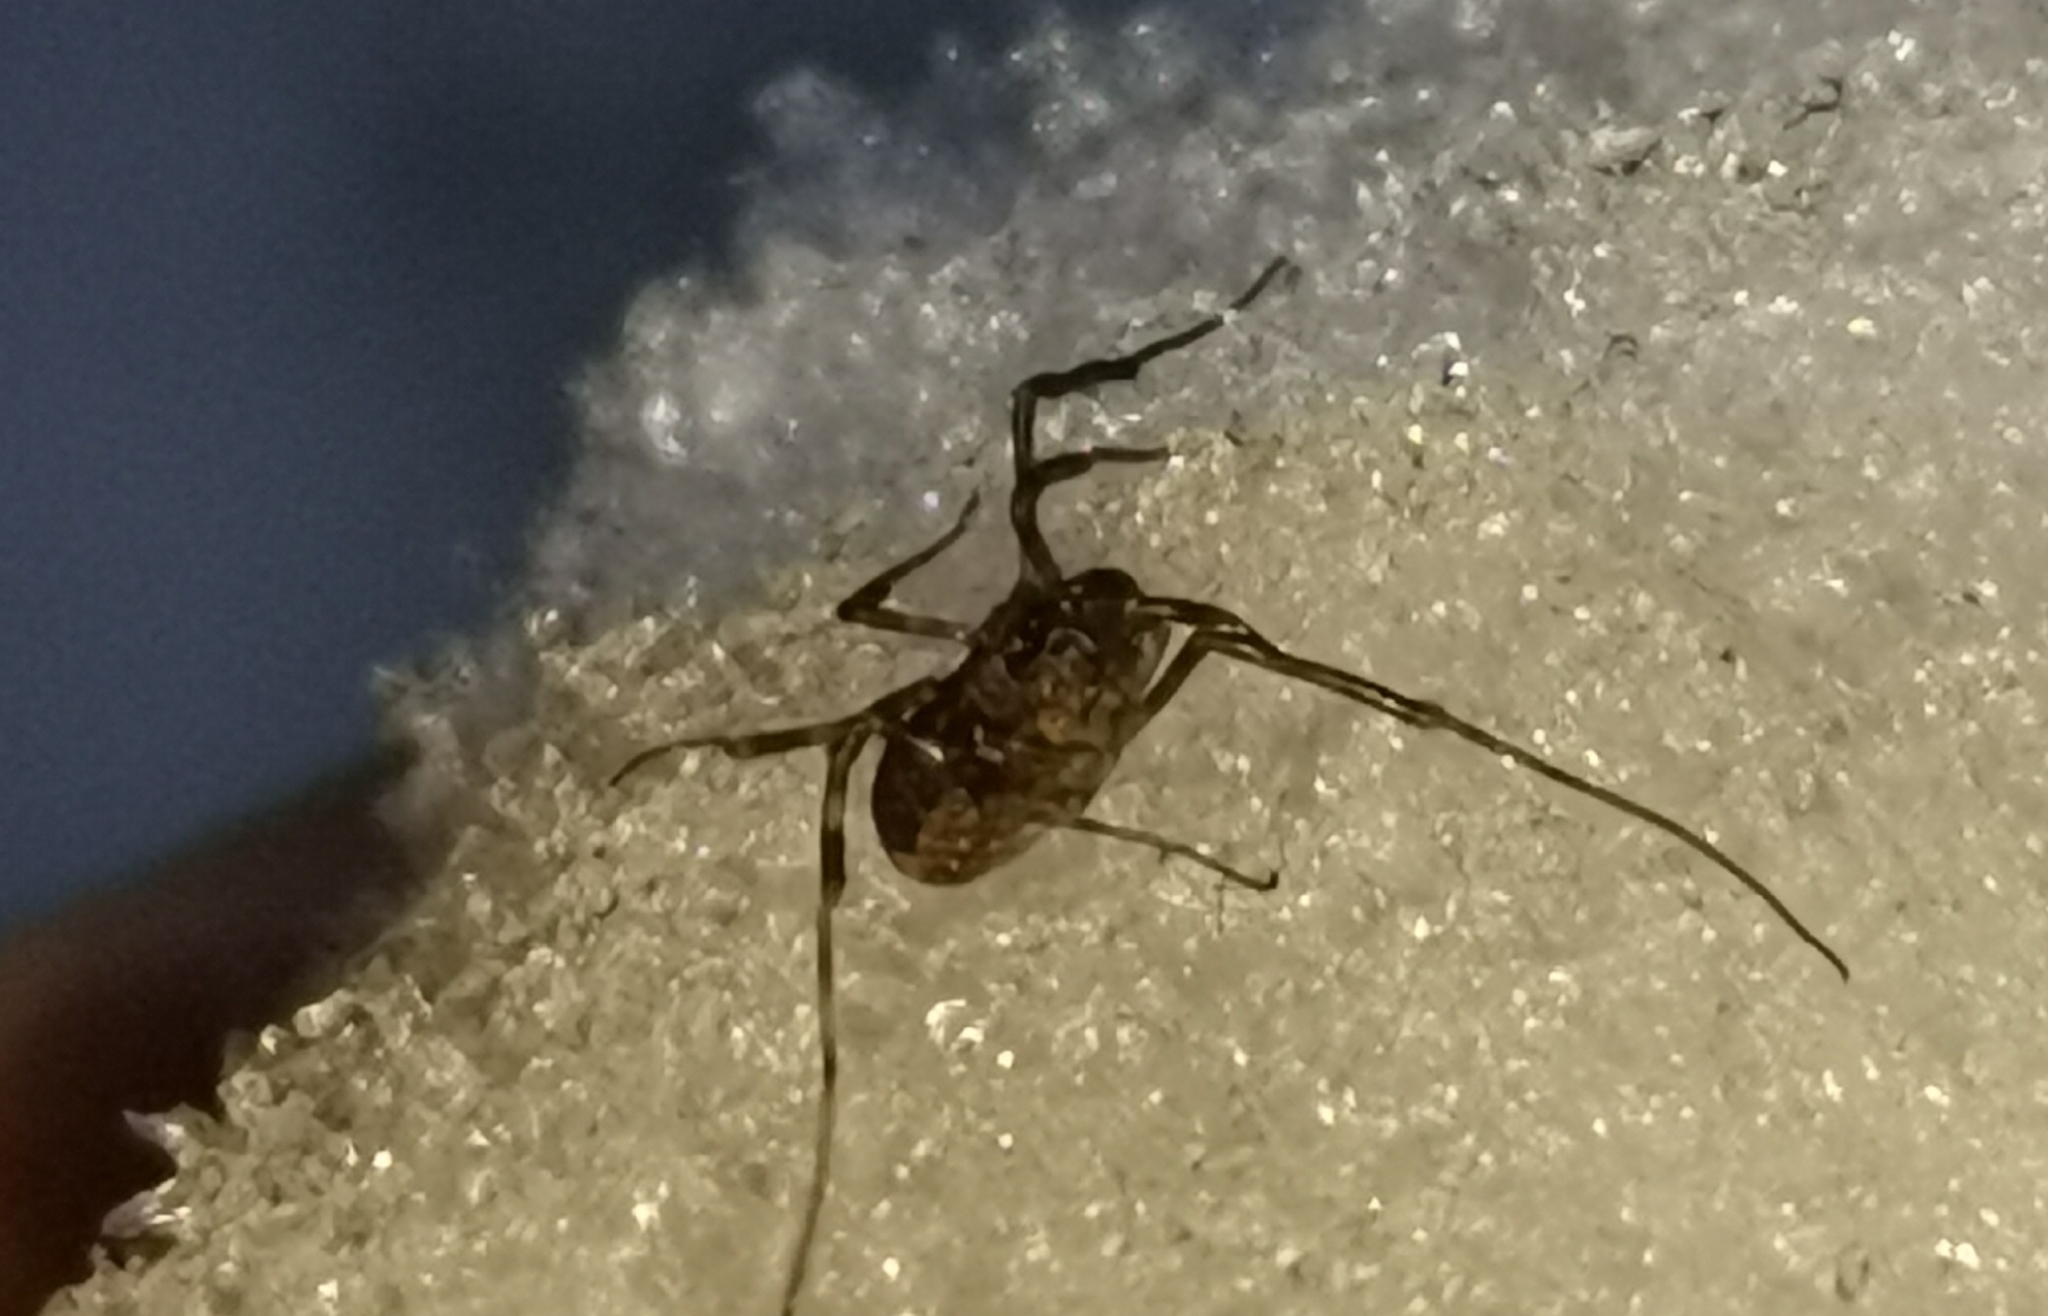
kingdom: Animalia
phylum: Arthropoda
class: Arachnida
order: Opiliones
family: Phalangiidae
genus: Rilaena
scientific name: Rilaena triangularis
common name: Spring harvestman
